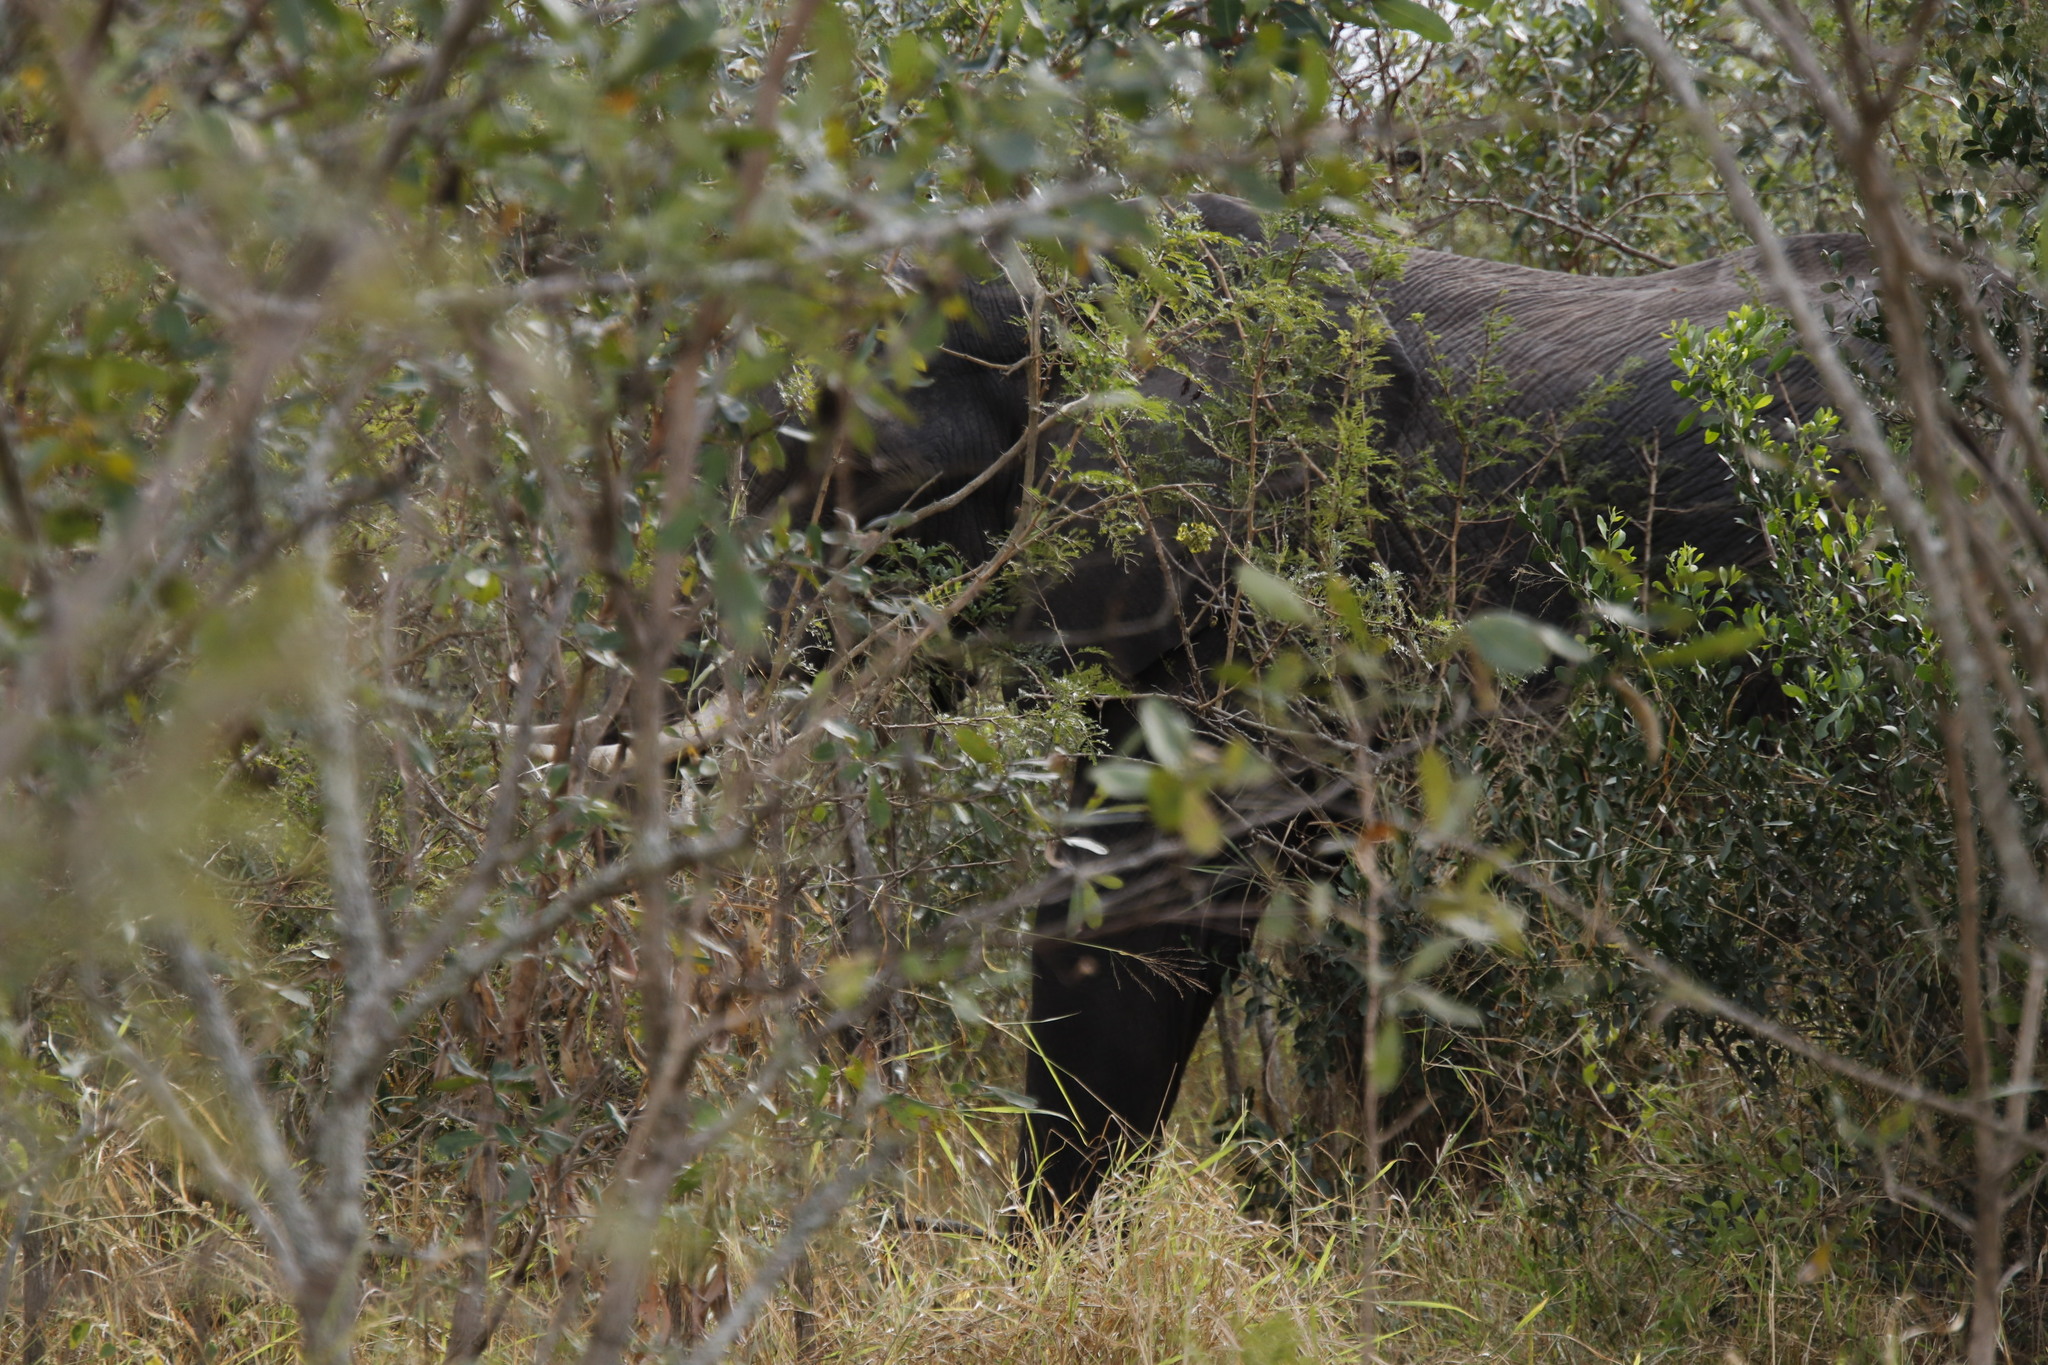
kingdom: Animalia
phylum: Chordata
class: Mammalia
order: Proboscidea
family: Elephantidae
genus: Loxodonta
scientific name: Loxodonta africana
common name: African elephant
